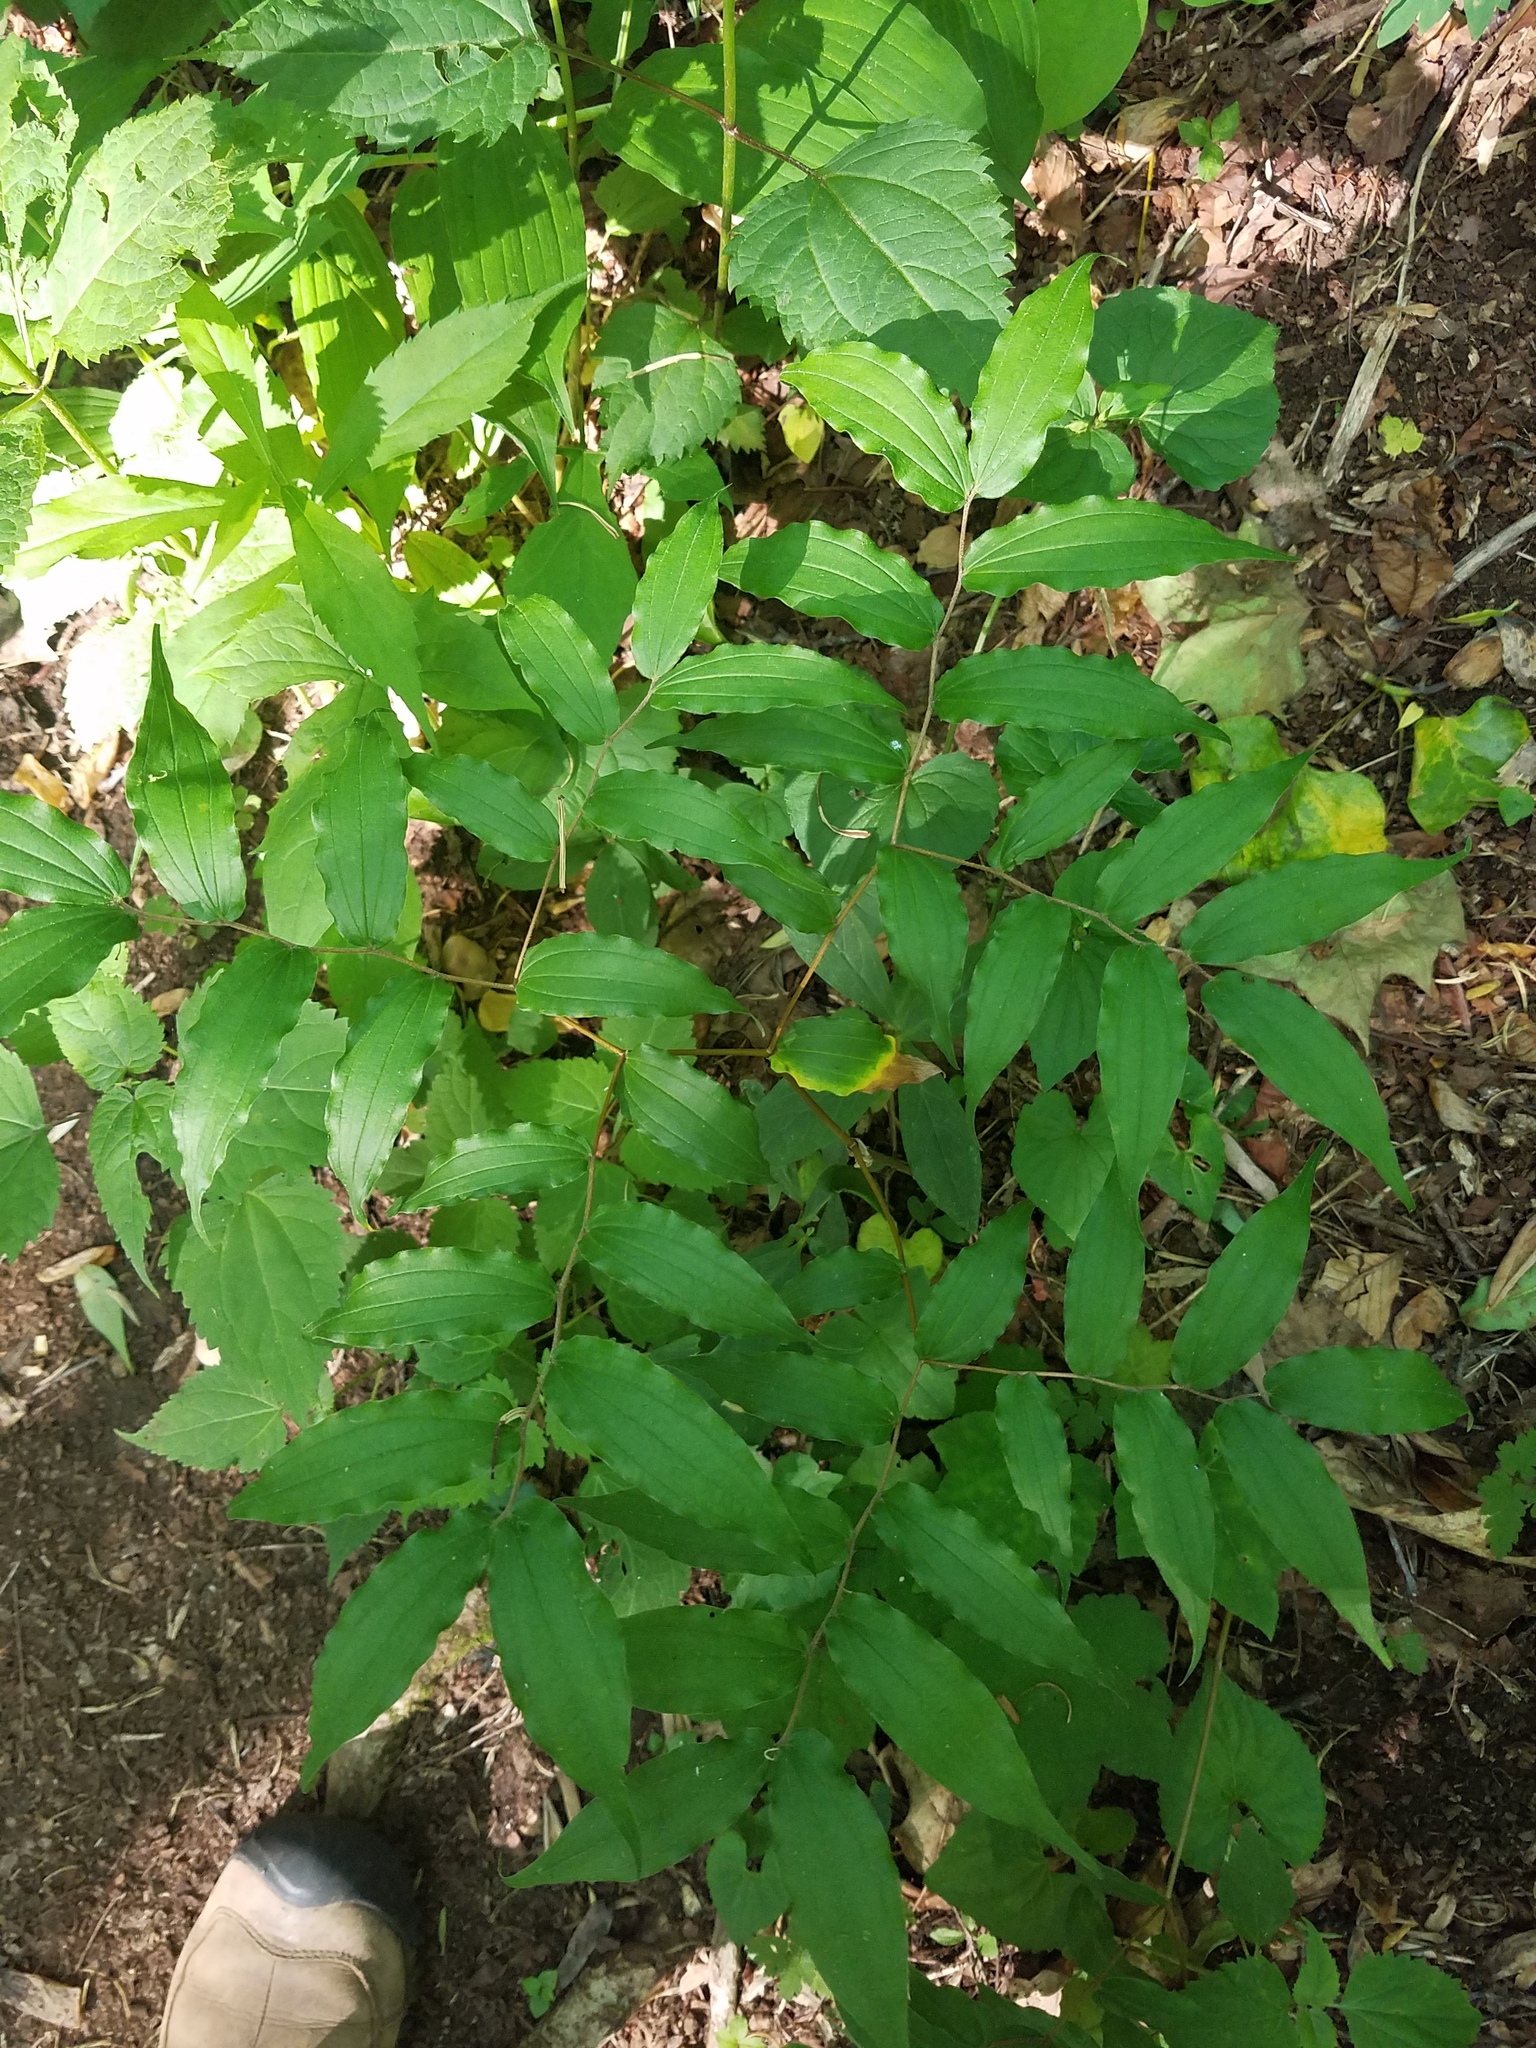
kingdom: Plantae
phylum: Tracheophyta
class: Liliopsida
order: Liliales
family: Liliaceae
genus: Prosartes
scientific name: Prosartes lanuginosa
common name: Hairy mandarin
